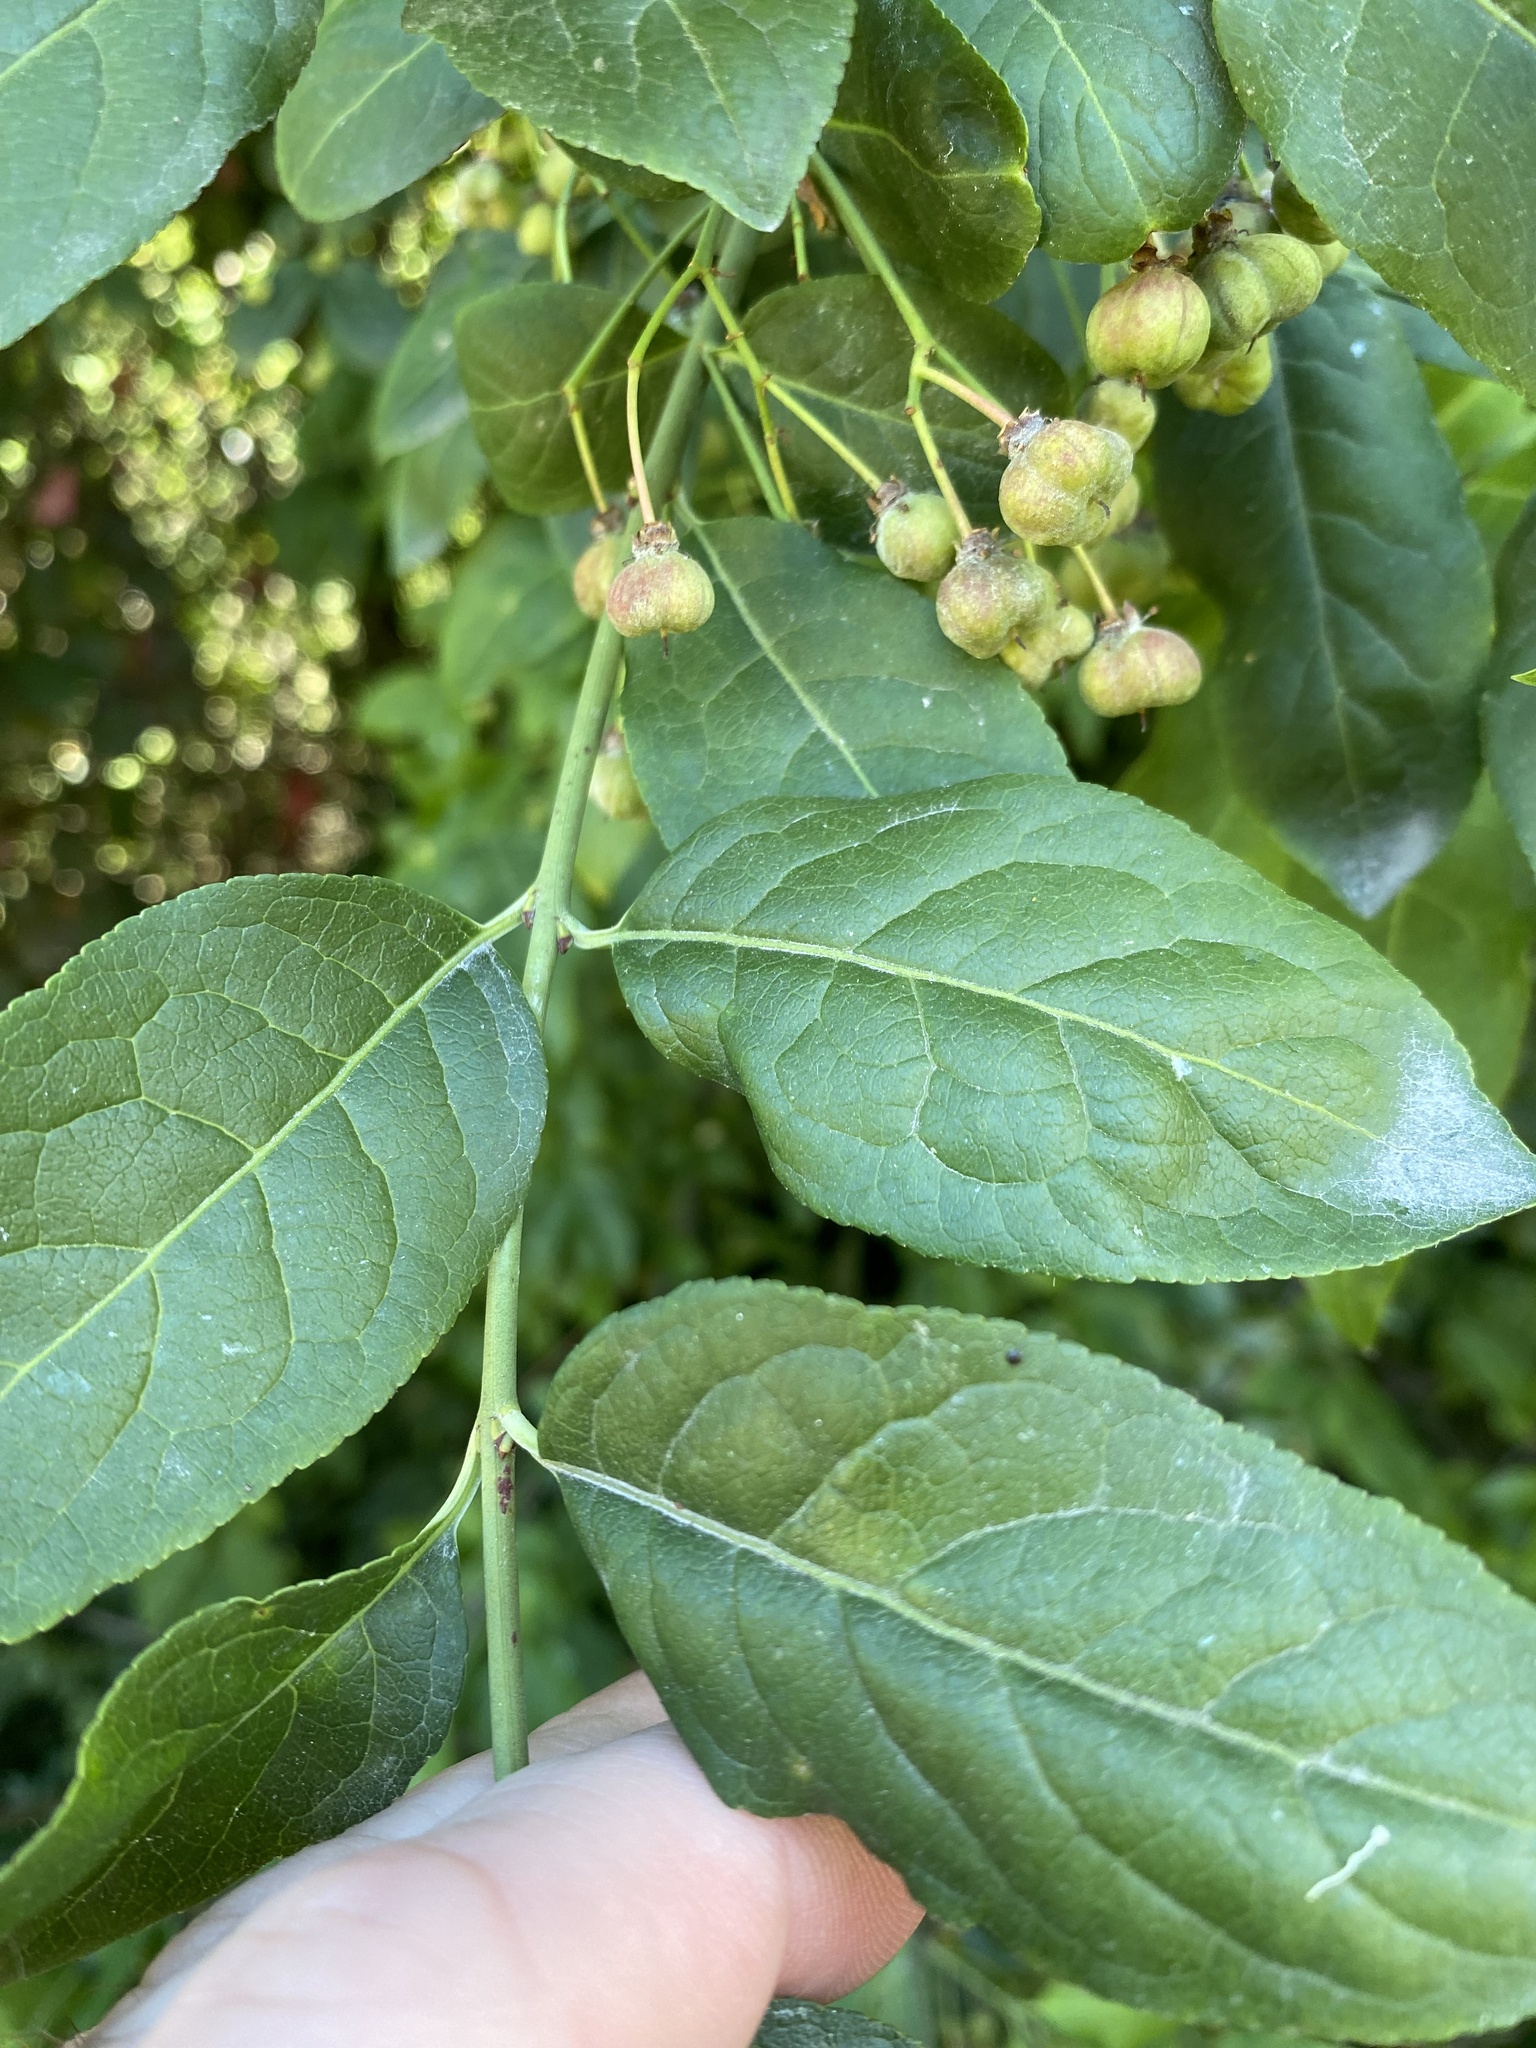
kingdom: Plantae
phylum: Tracheophyta
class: Magnoliopsida
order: Celastrales
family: Celastraceae
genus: Euonymus
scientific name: Euonymus europaeus
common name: Spindle
